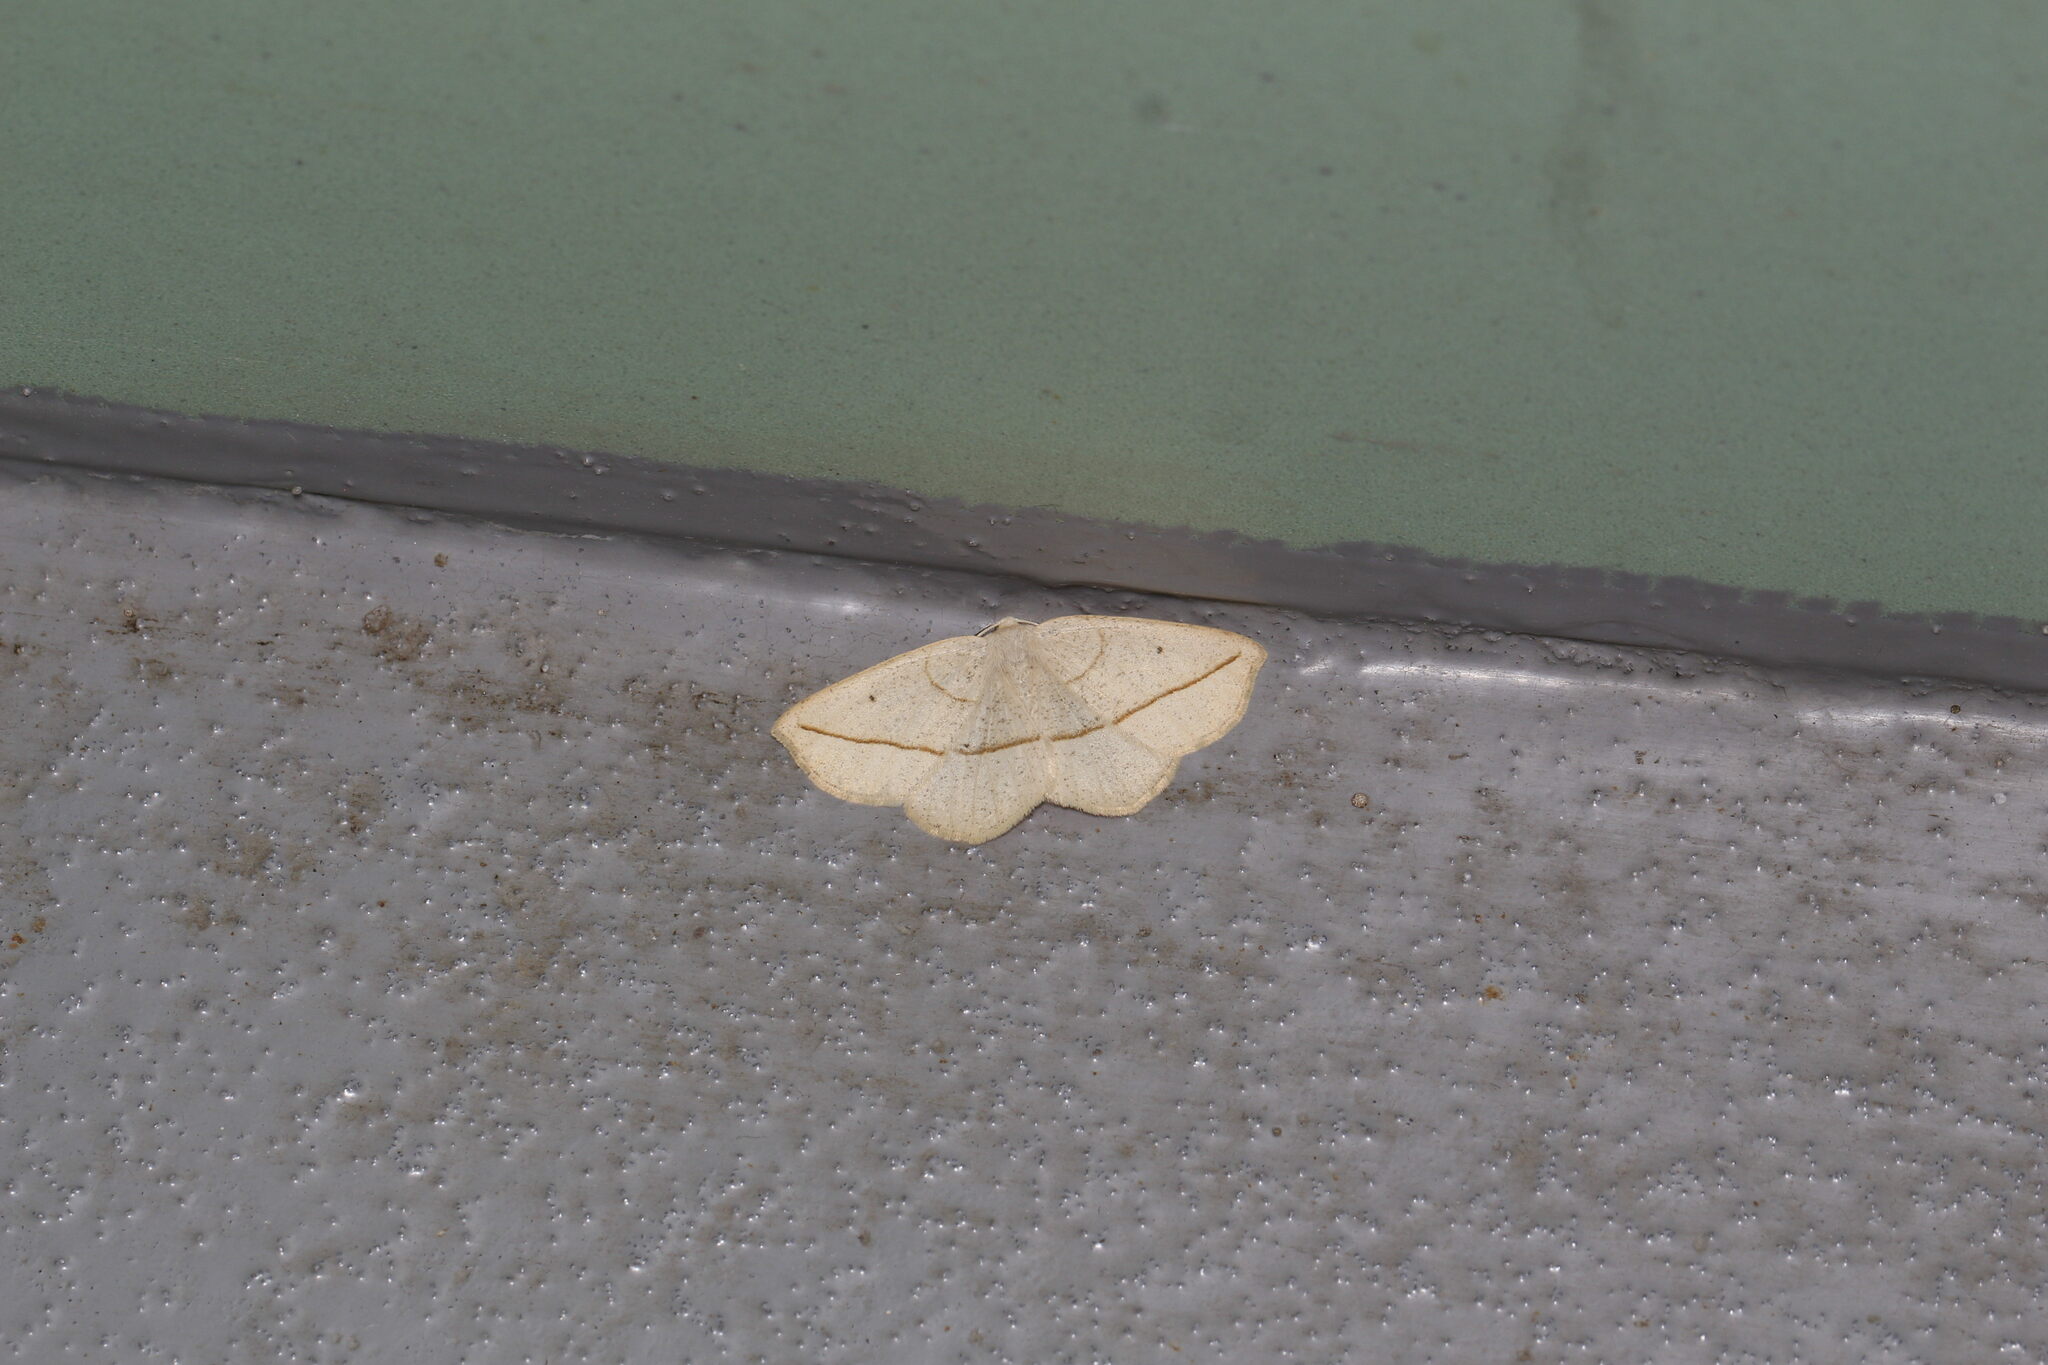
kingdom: Animalia
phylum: Arthropoda
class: Insecta
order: Lepidoptera
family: Geometridae
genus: Eusarca
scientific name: Eusarca confusaria
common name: Confused eusarca
